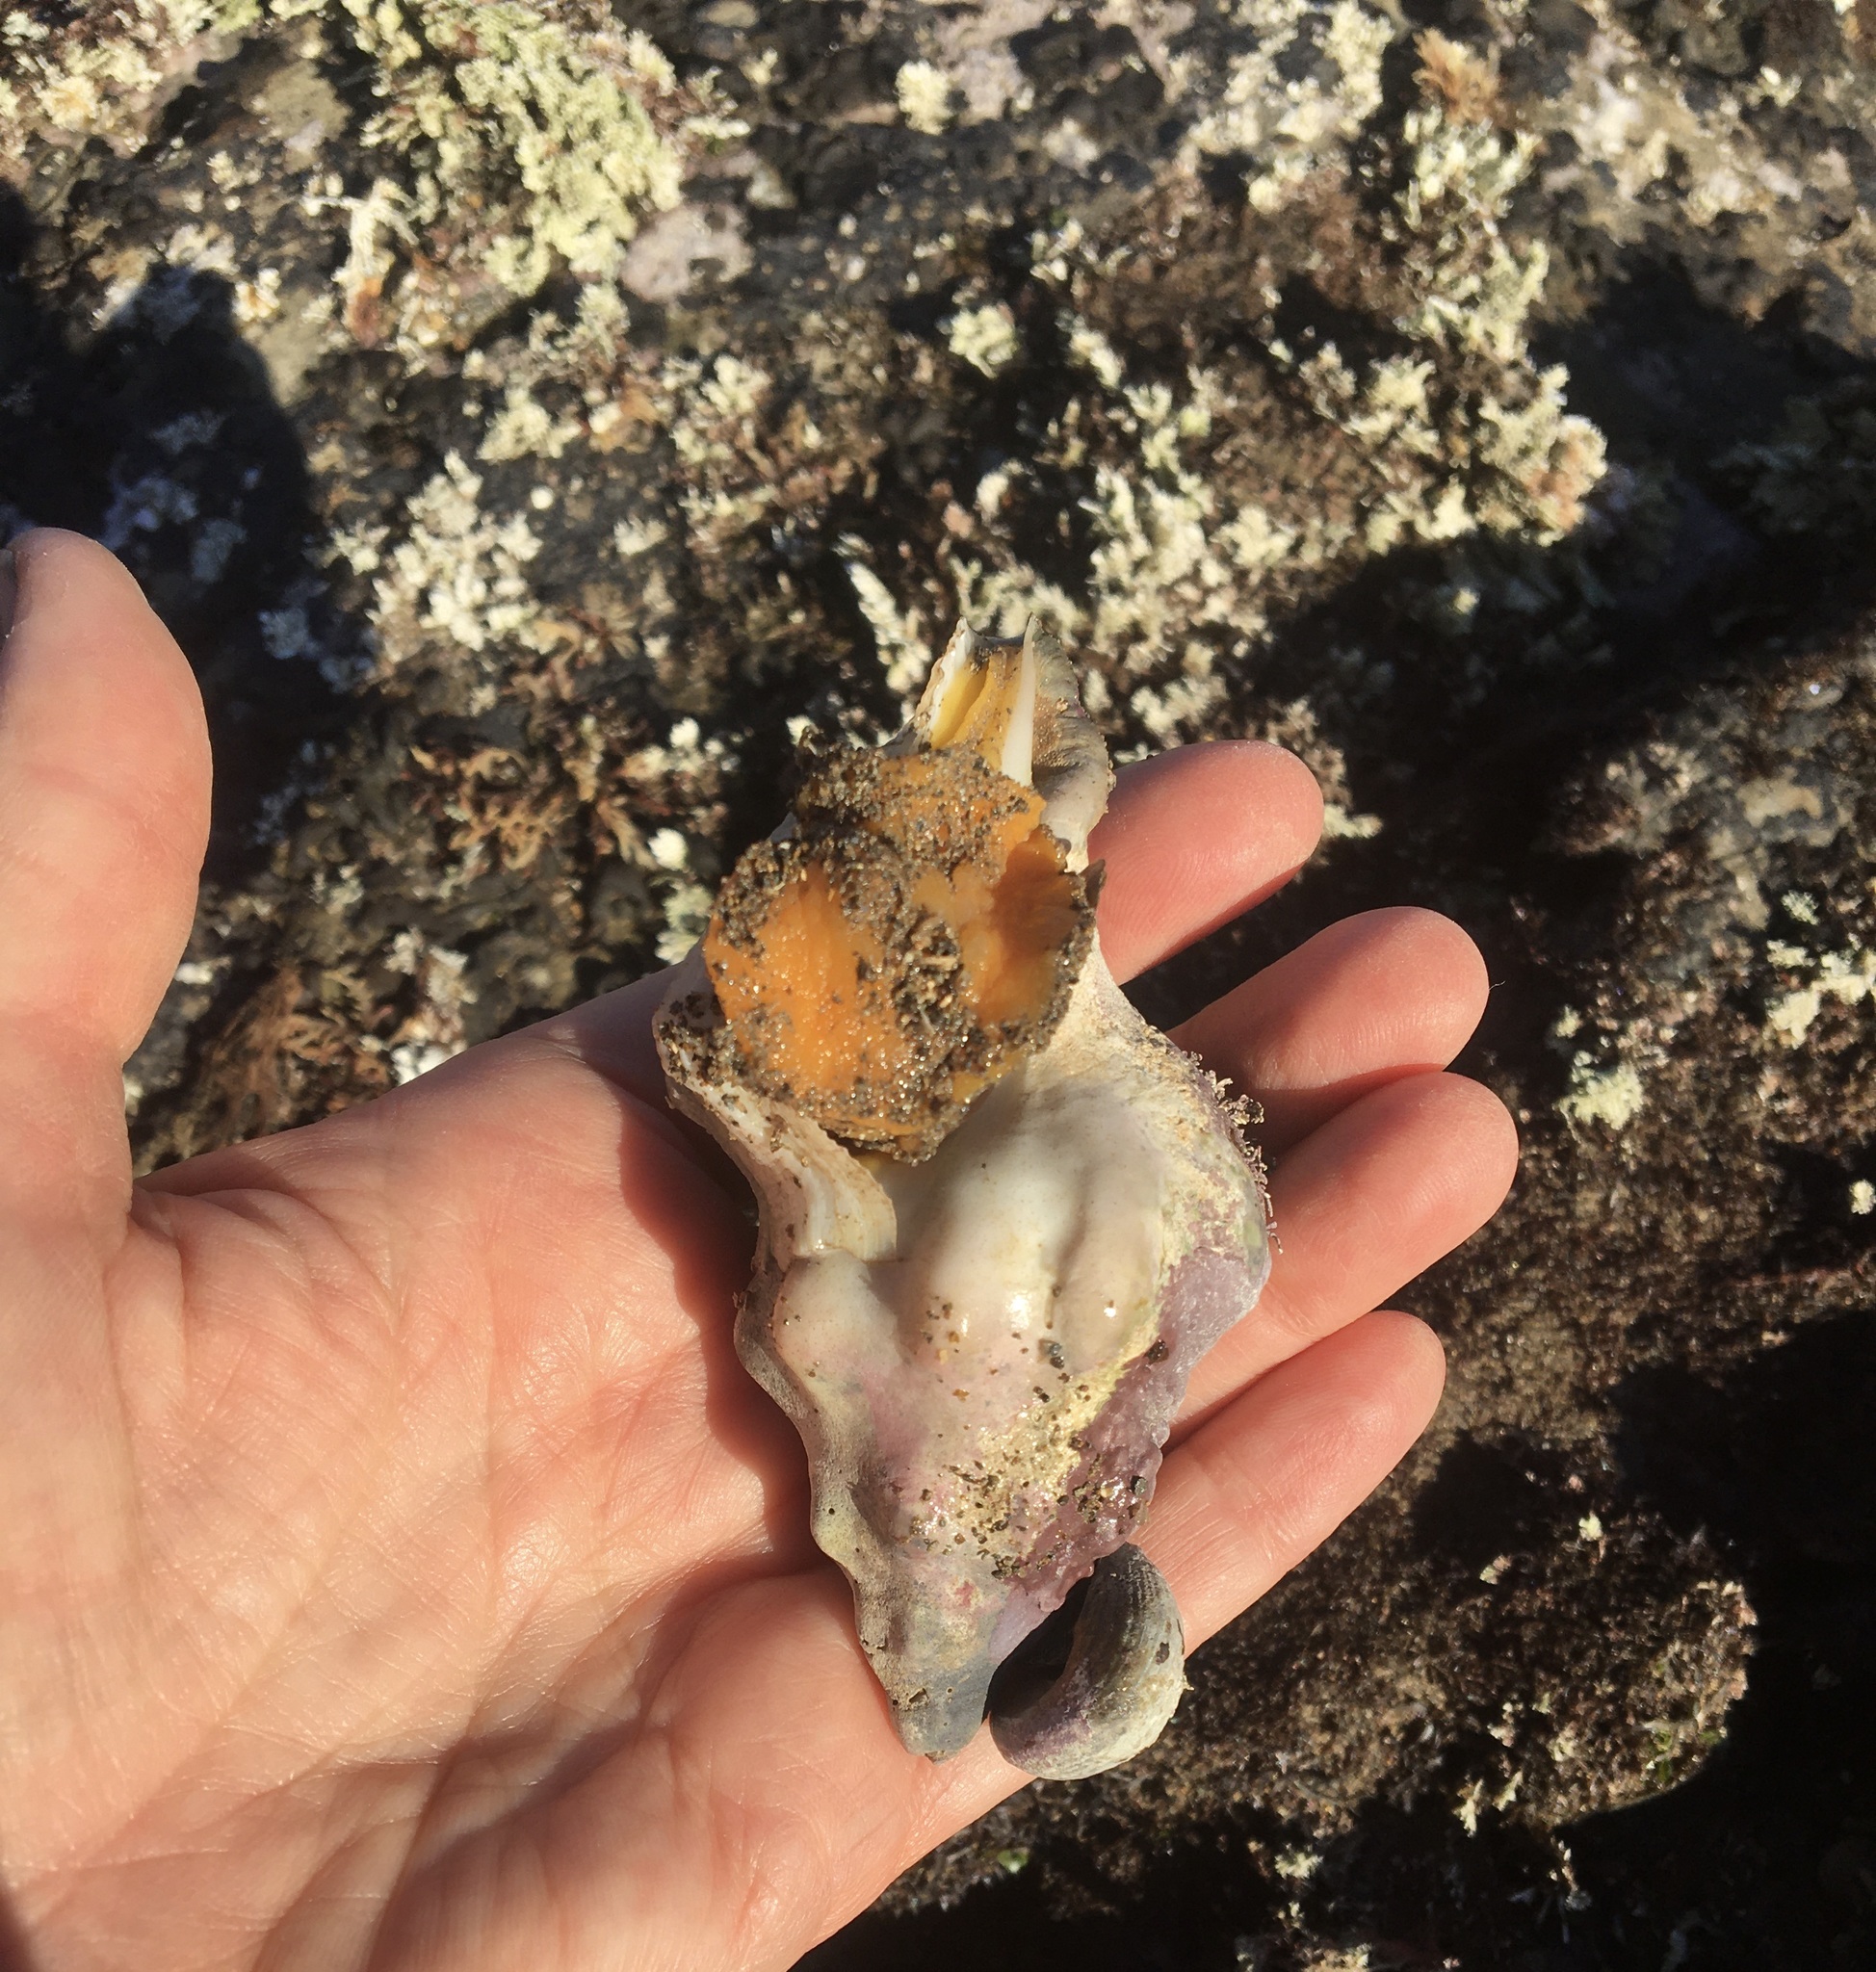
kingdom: Animalia
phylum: Mollusca
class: Gastropoda
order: Neogastropoda
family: Austrosiphonidae
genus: Kelletia
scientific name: Kelletia kelletii
